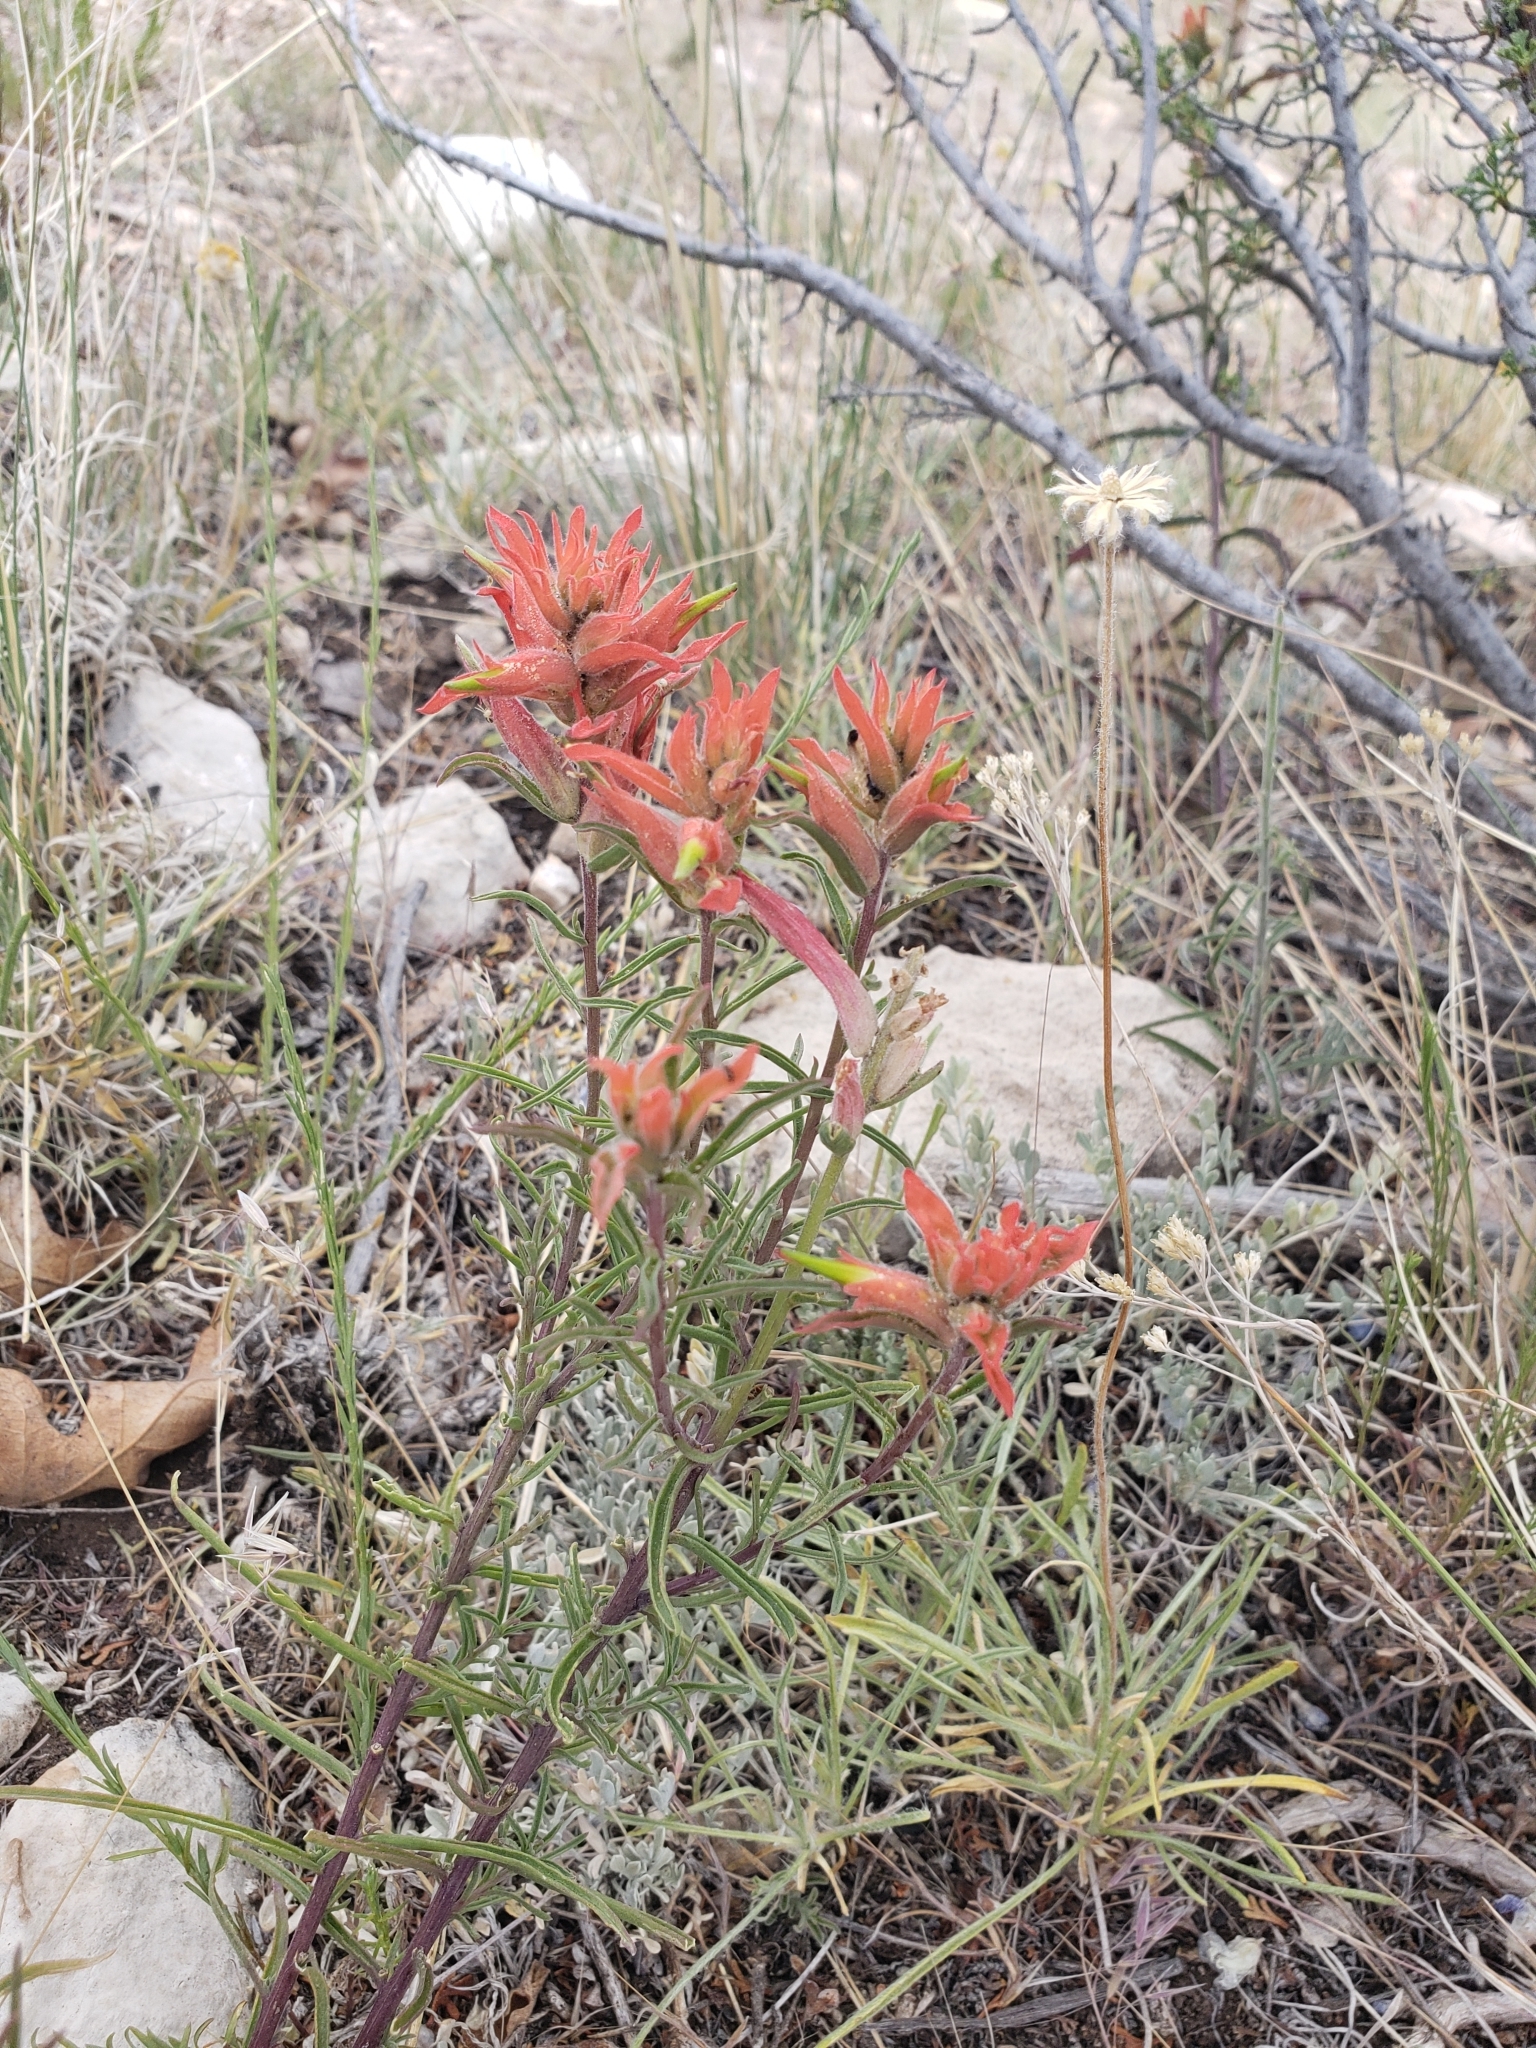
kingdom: Plantae
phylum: Tracheophyta
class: Magnoliopsida
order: Lamiales
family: Orobanchaceae
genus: Castilleja
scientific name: Castilleja integra
